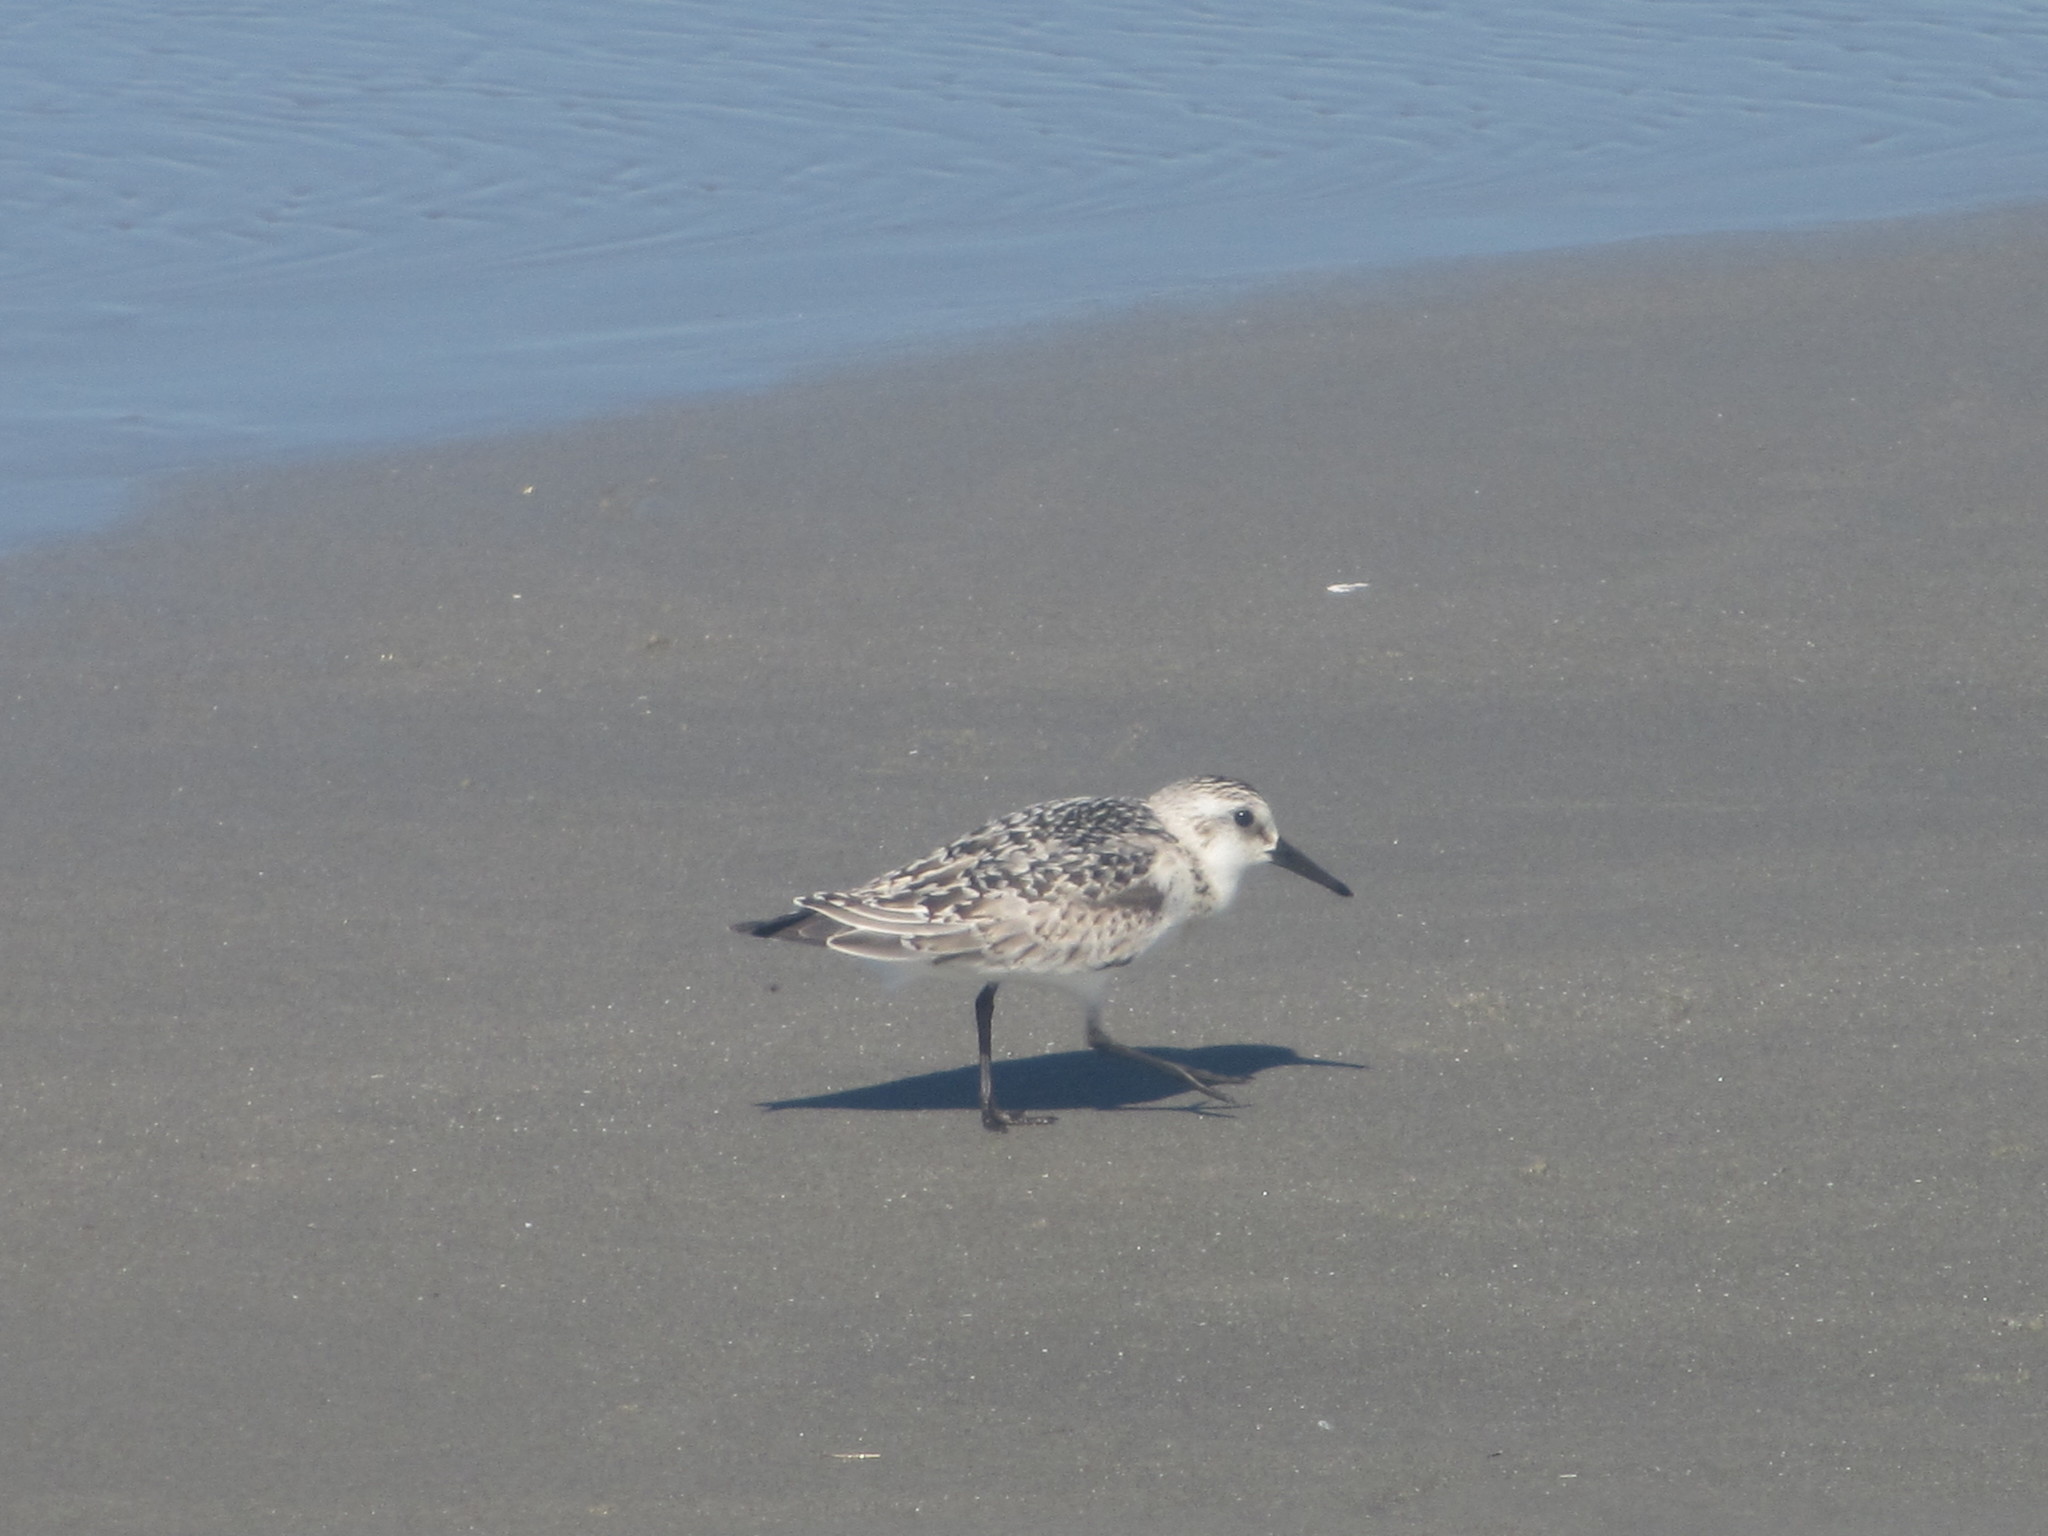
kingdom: Animalia
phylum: Chordata
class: Aves
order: Charadriiformes
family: Scolopacidae
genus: Calidris
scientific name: Calidris alba
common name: Sanderling
